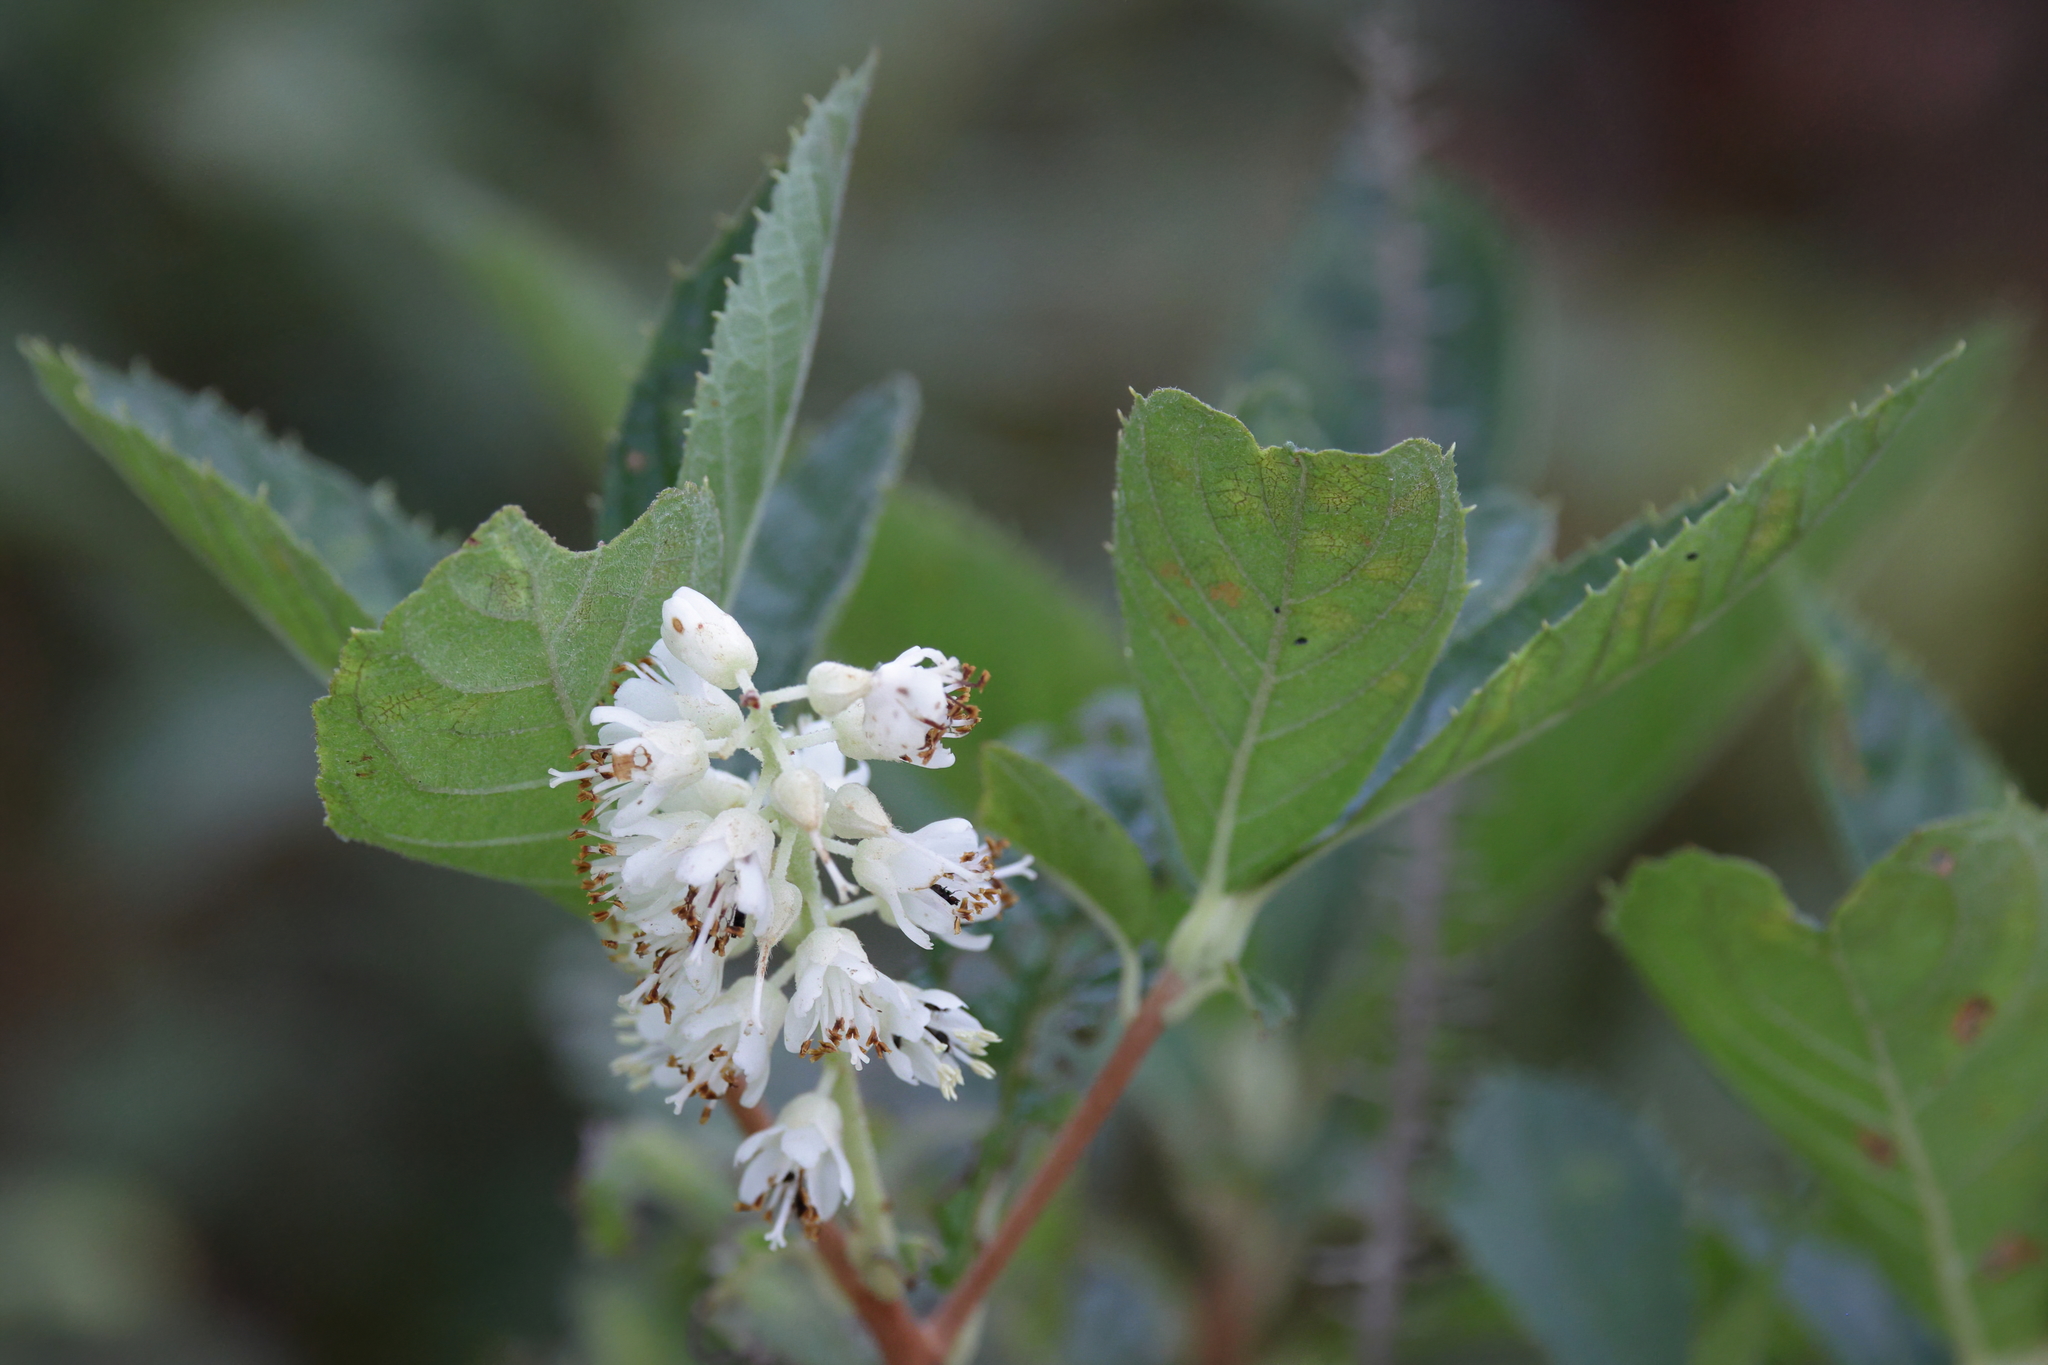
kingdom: Plantae
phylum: Tracheophyta
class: Magnoliopsida
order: Ericales
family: Clethraceae
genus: Clethra
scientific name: Clethra alnifolia
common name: Sweet pepperbush
